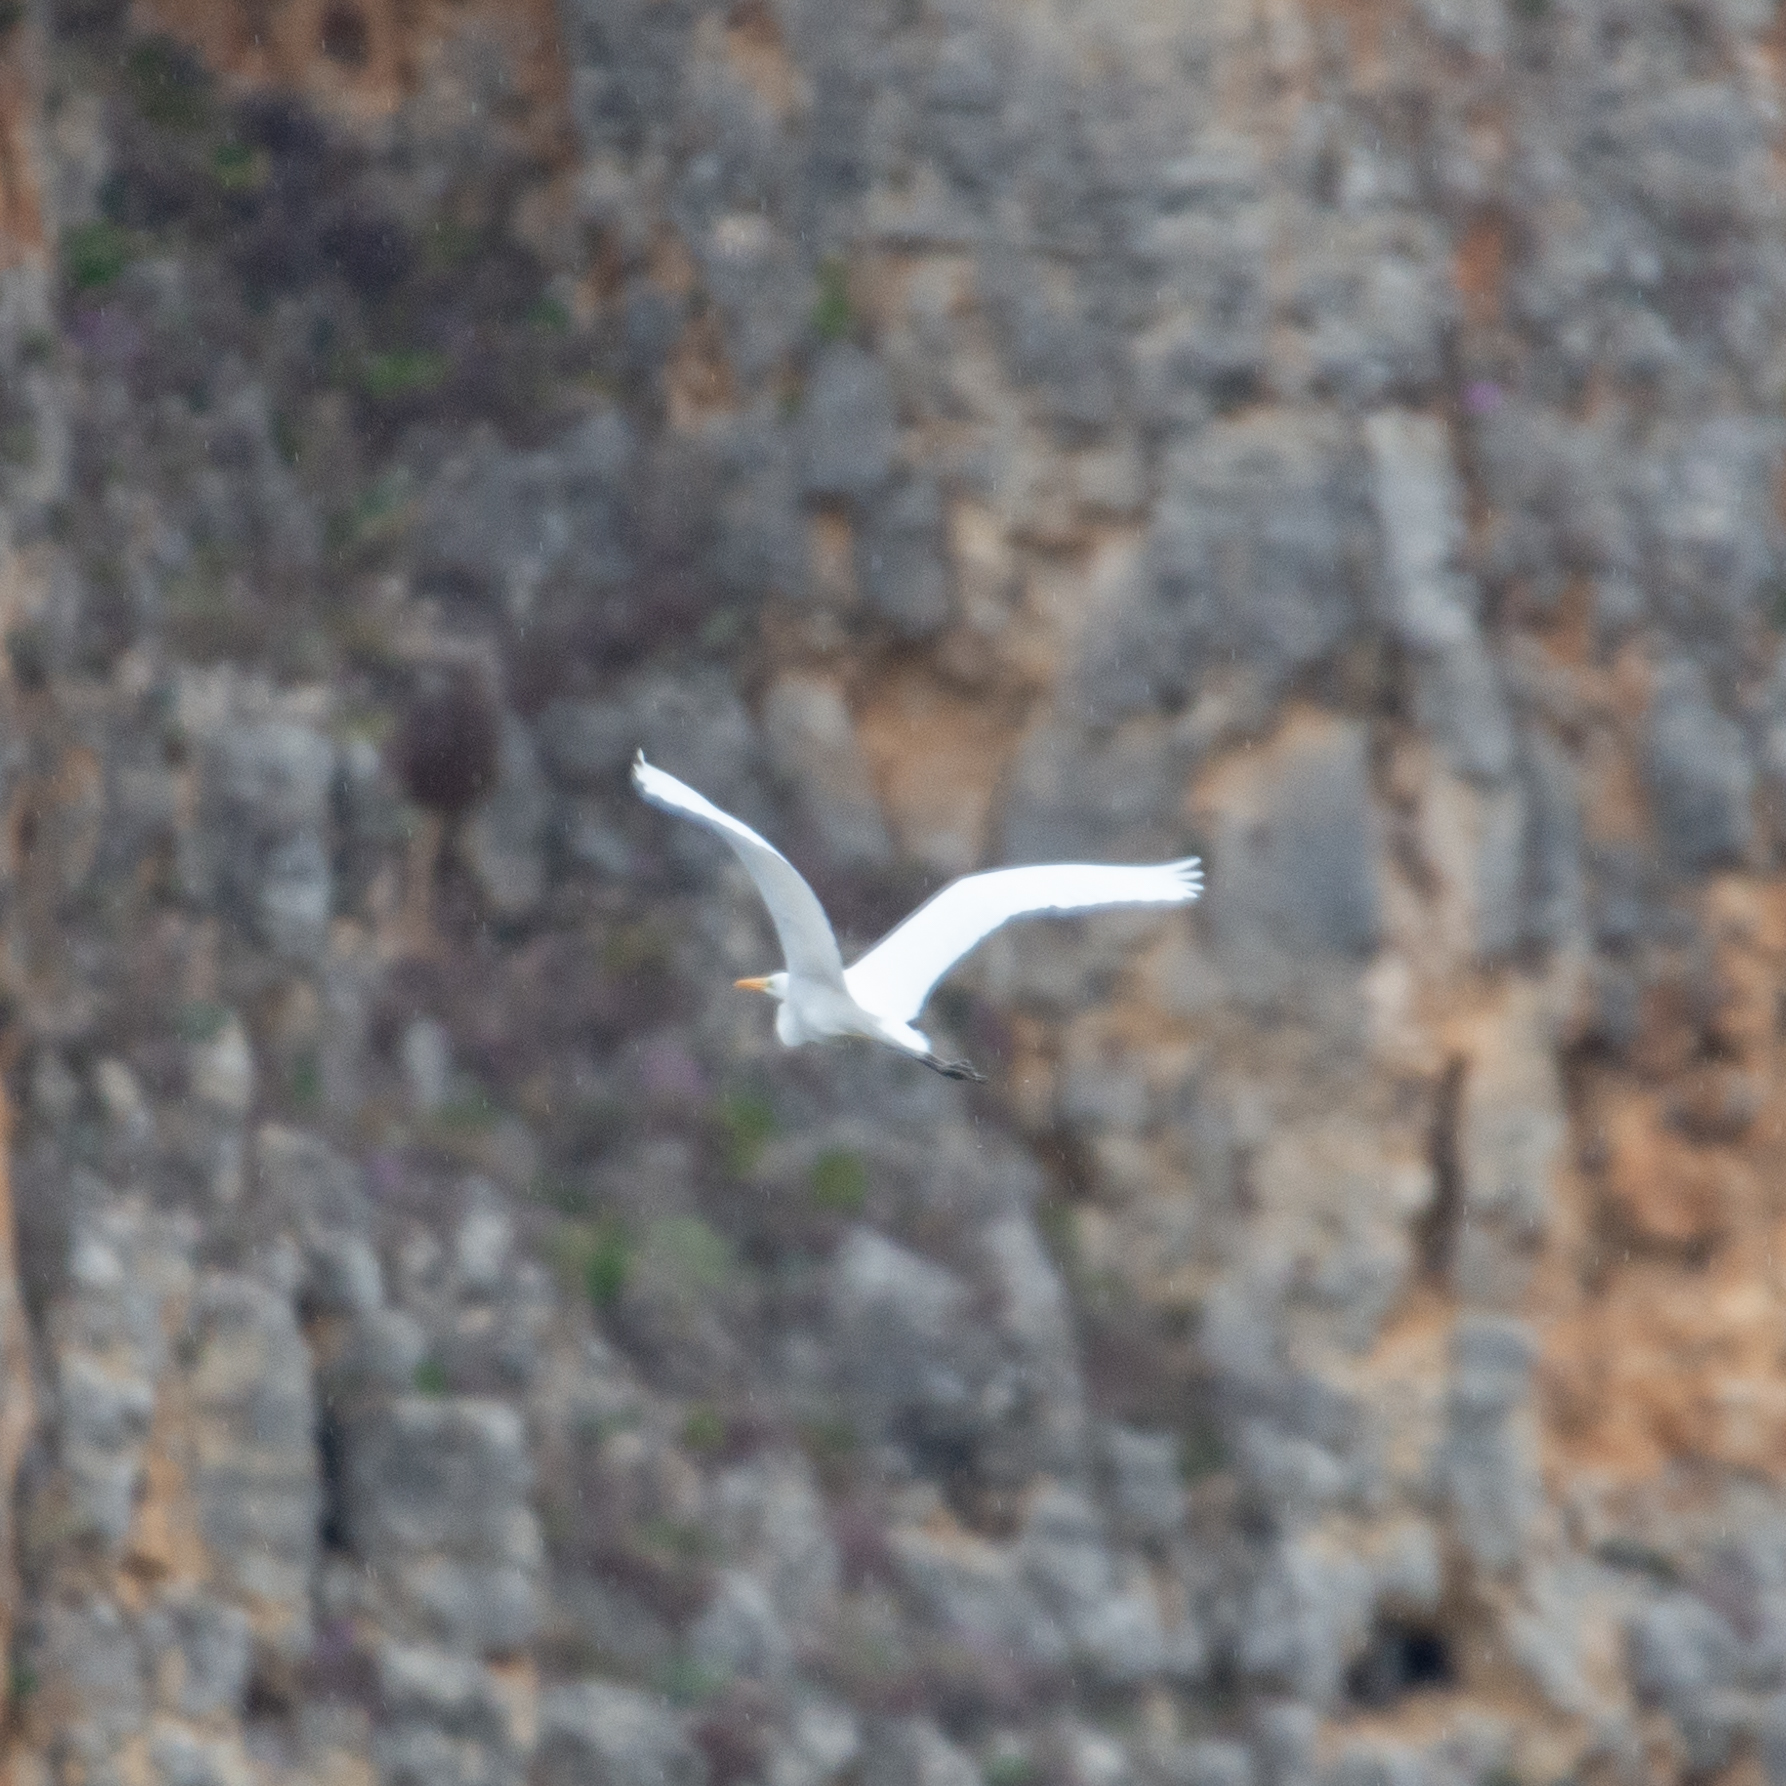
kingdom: Animalia
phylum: Chordata
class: Aves
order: Pelecaniformes
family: Ardeidae
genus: Ardea
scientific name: Ardea alba
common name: Great egret
